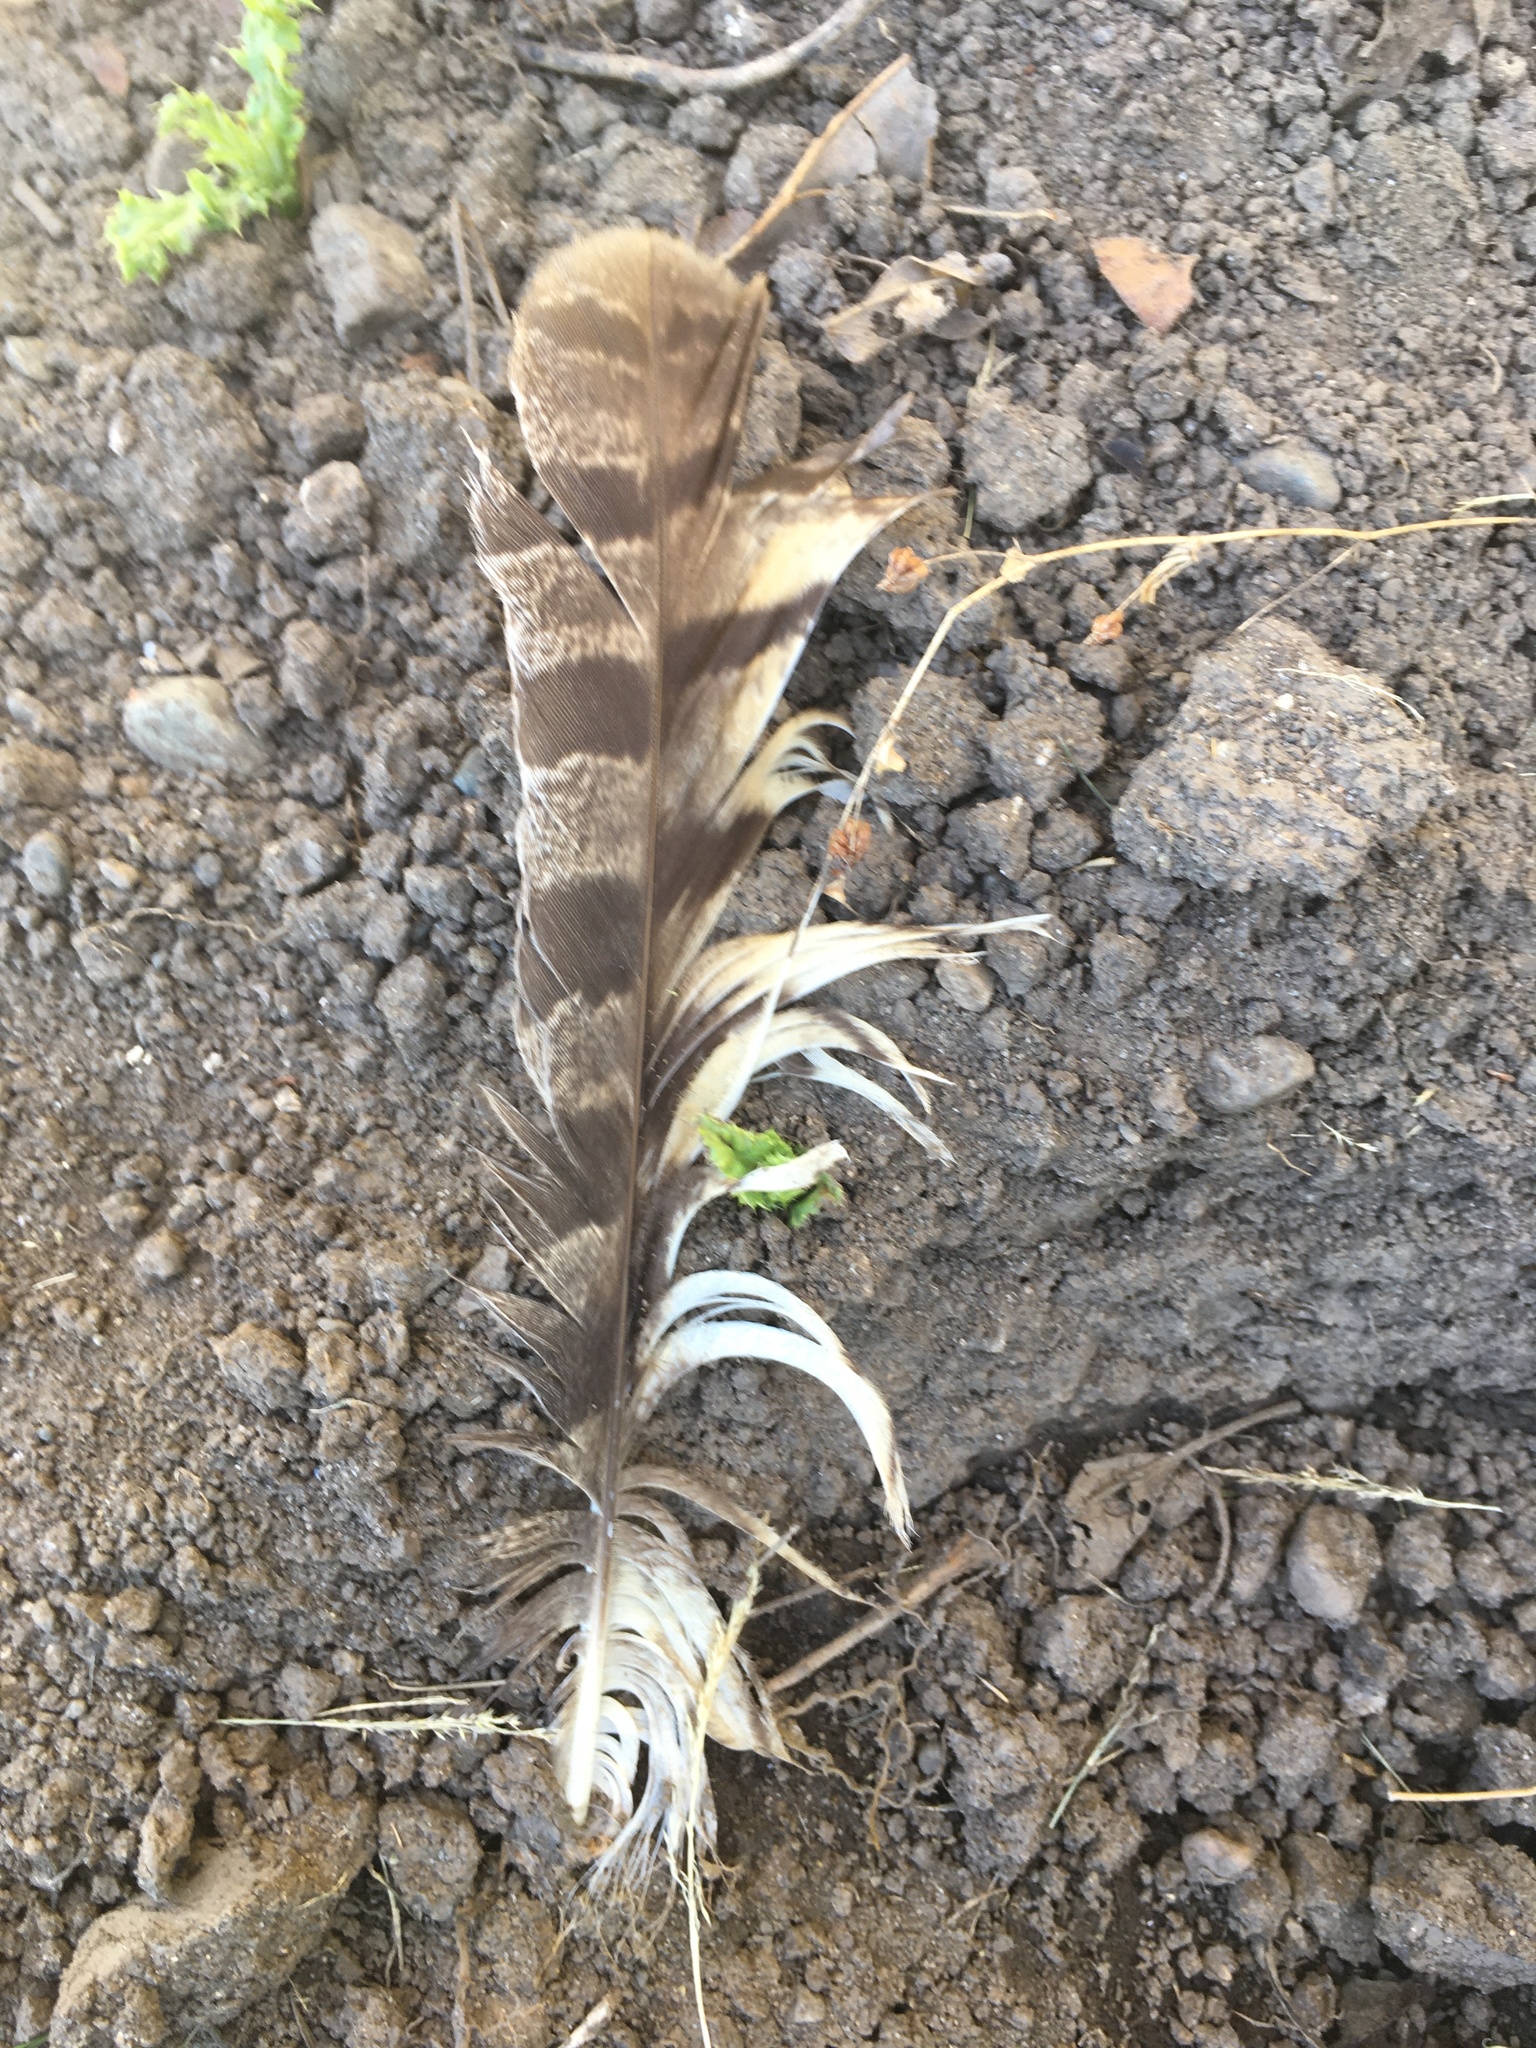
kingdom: Animalia
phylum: Chordata
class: Aves
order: Strigiformes
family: Strigidae
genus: Bubo
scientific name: Bubo virginianus
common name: Great horned owl
